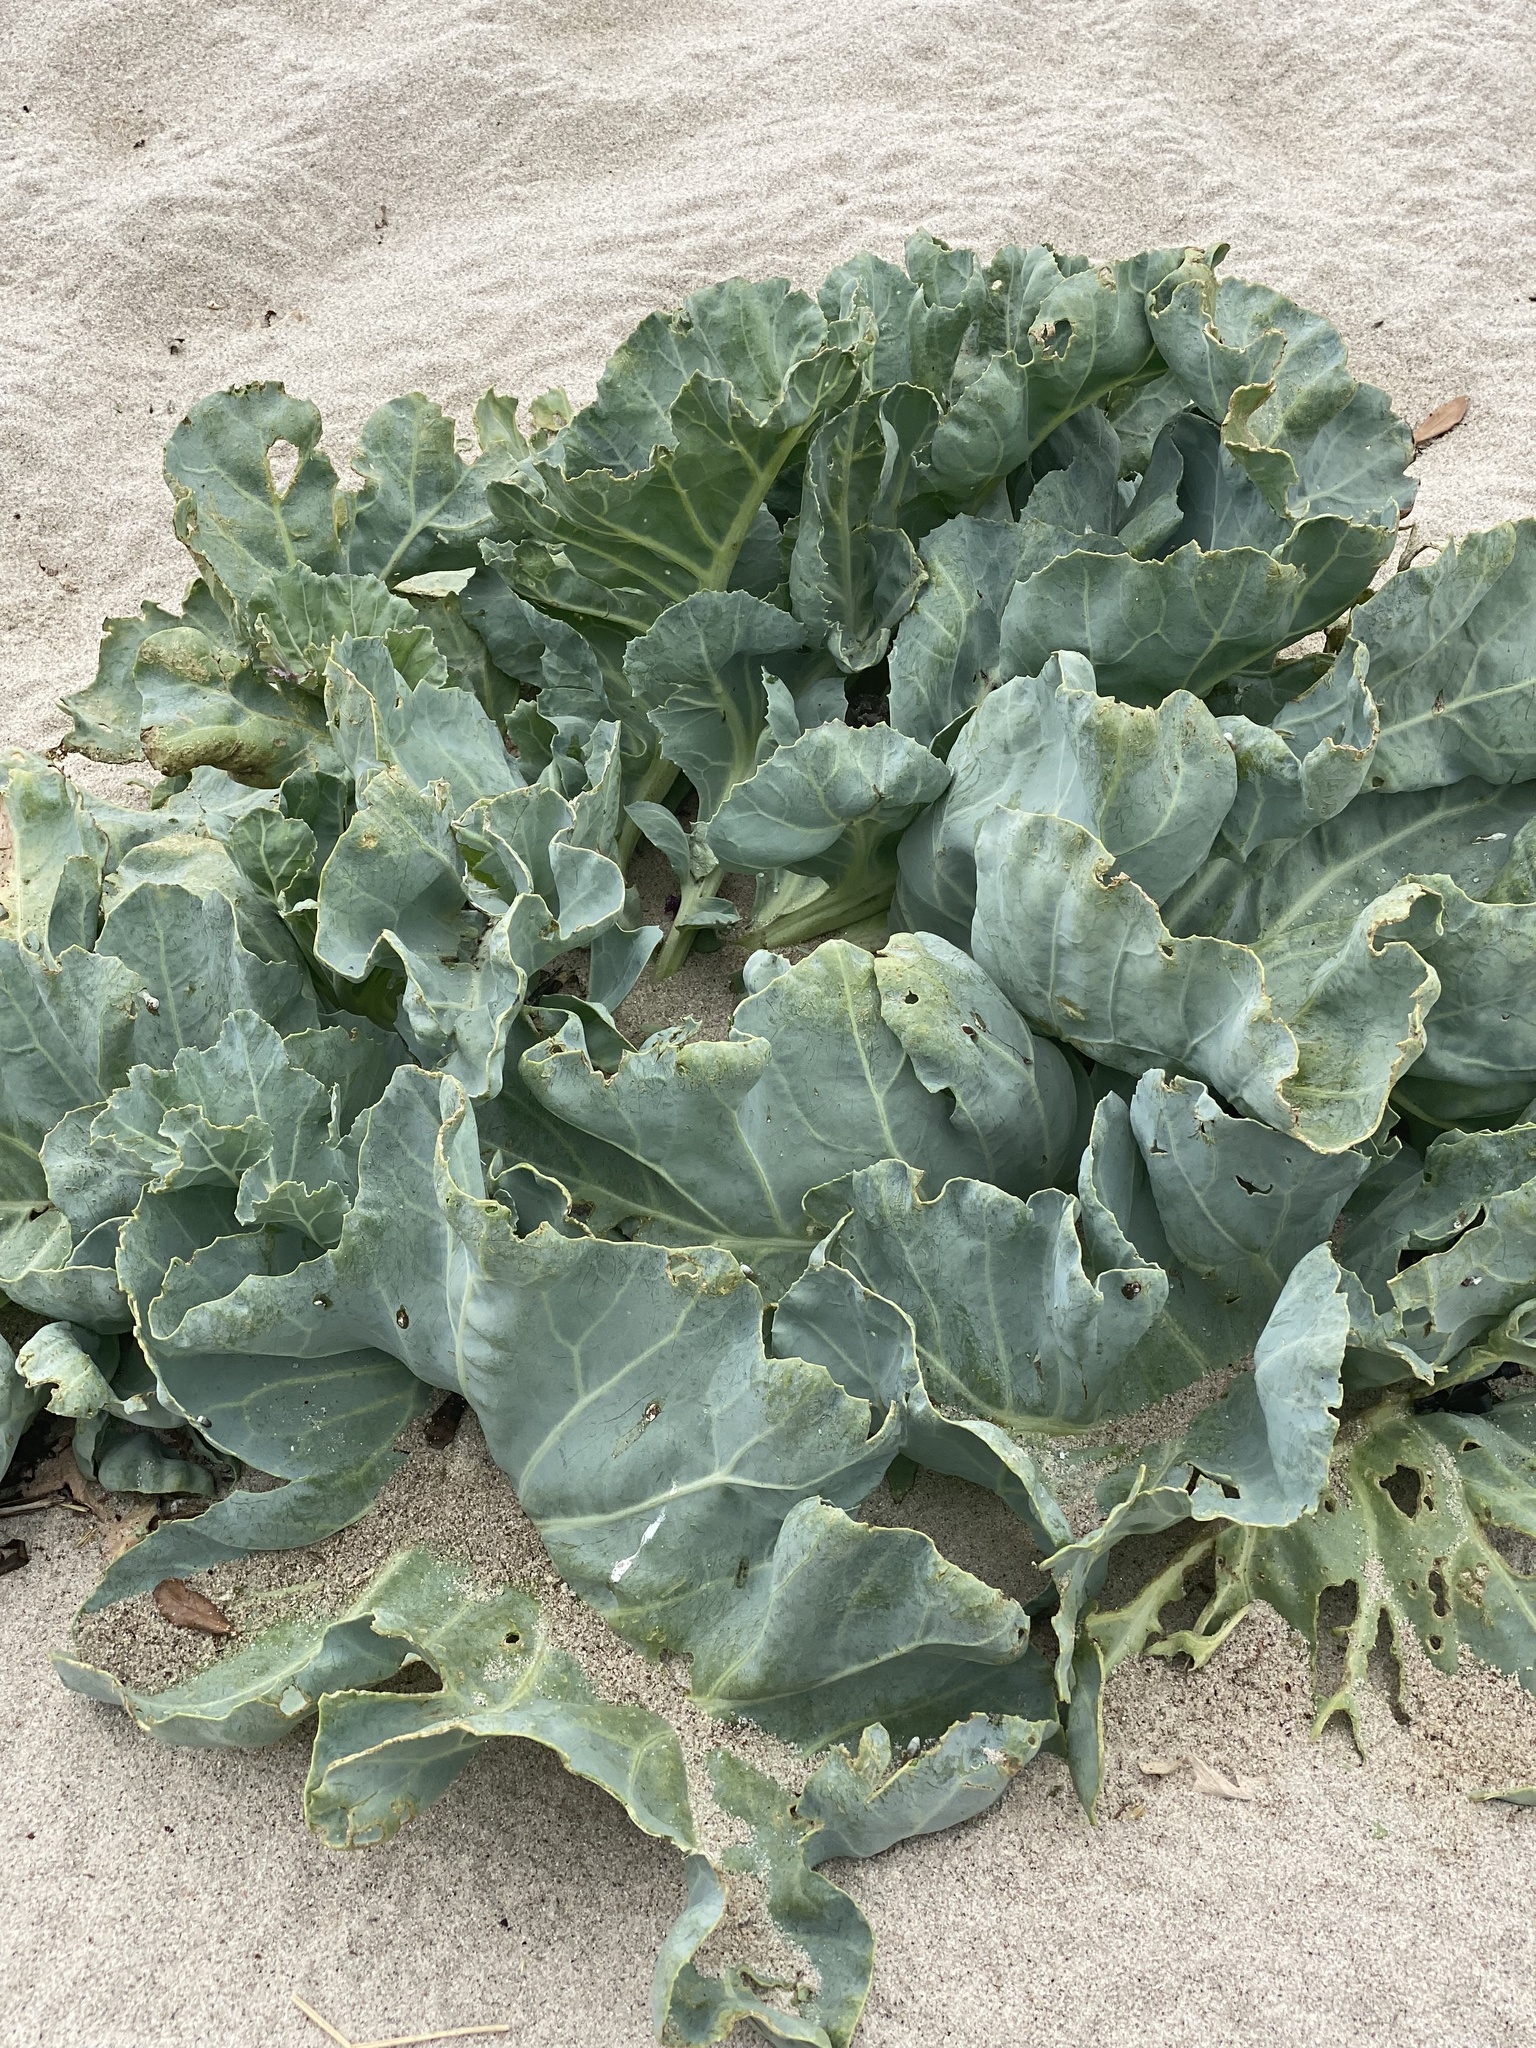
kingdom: Plantae
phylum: Tracheophyta
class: Magnoliopsida
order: Brassicales
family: Brassicaceae
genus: Crambe
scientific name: Crambe maritima
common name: Sea-kale
